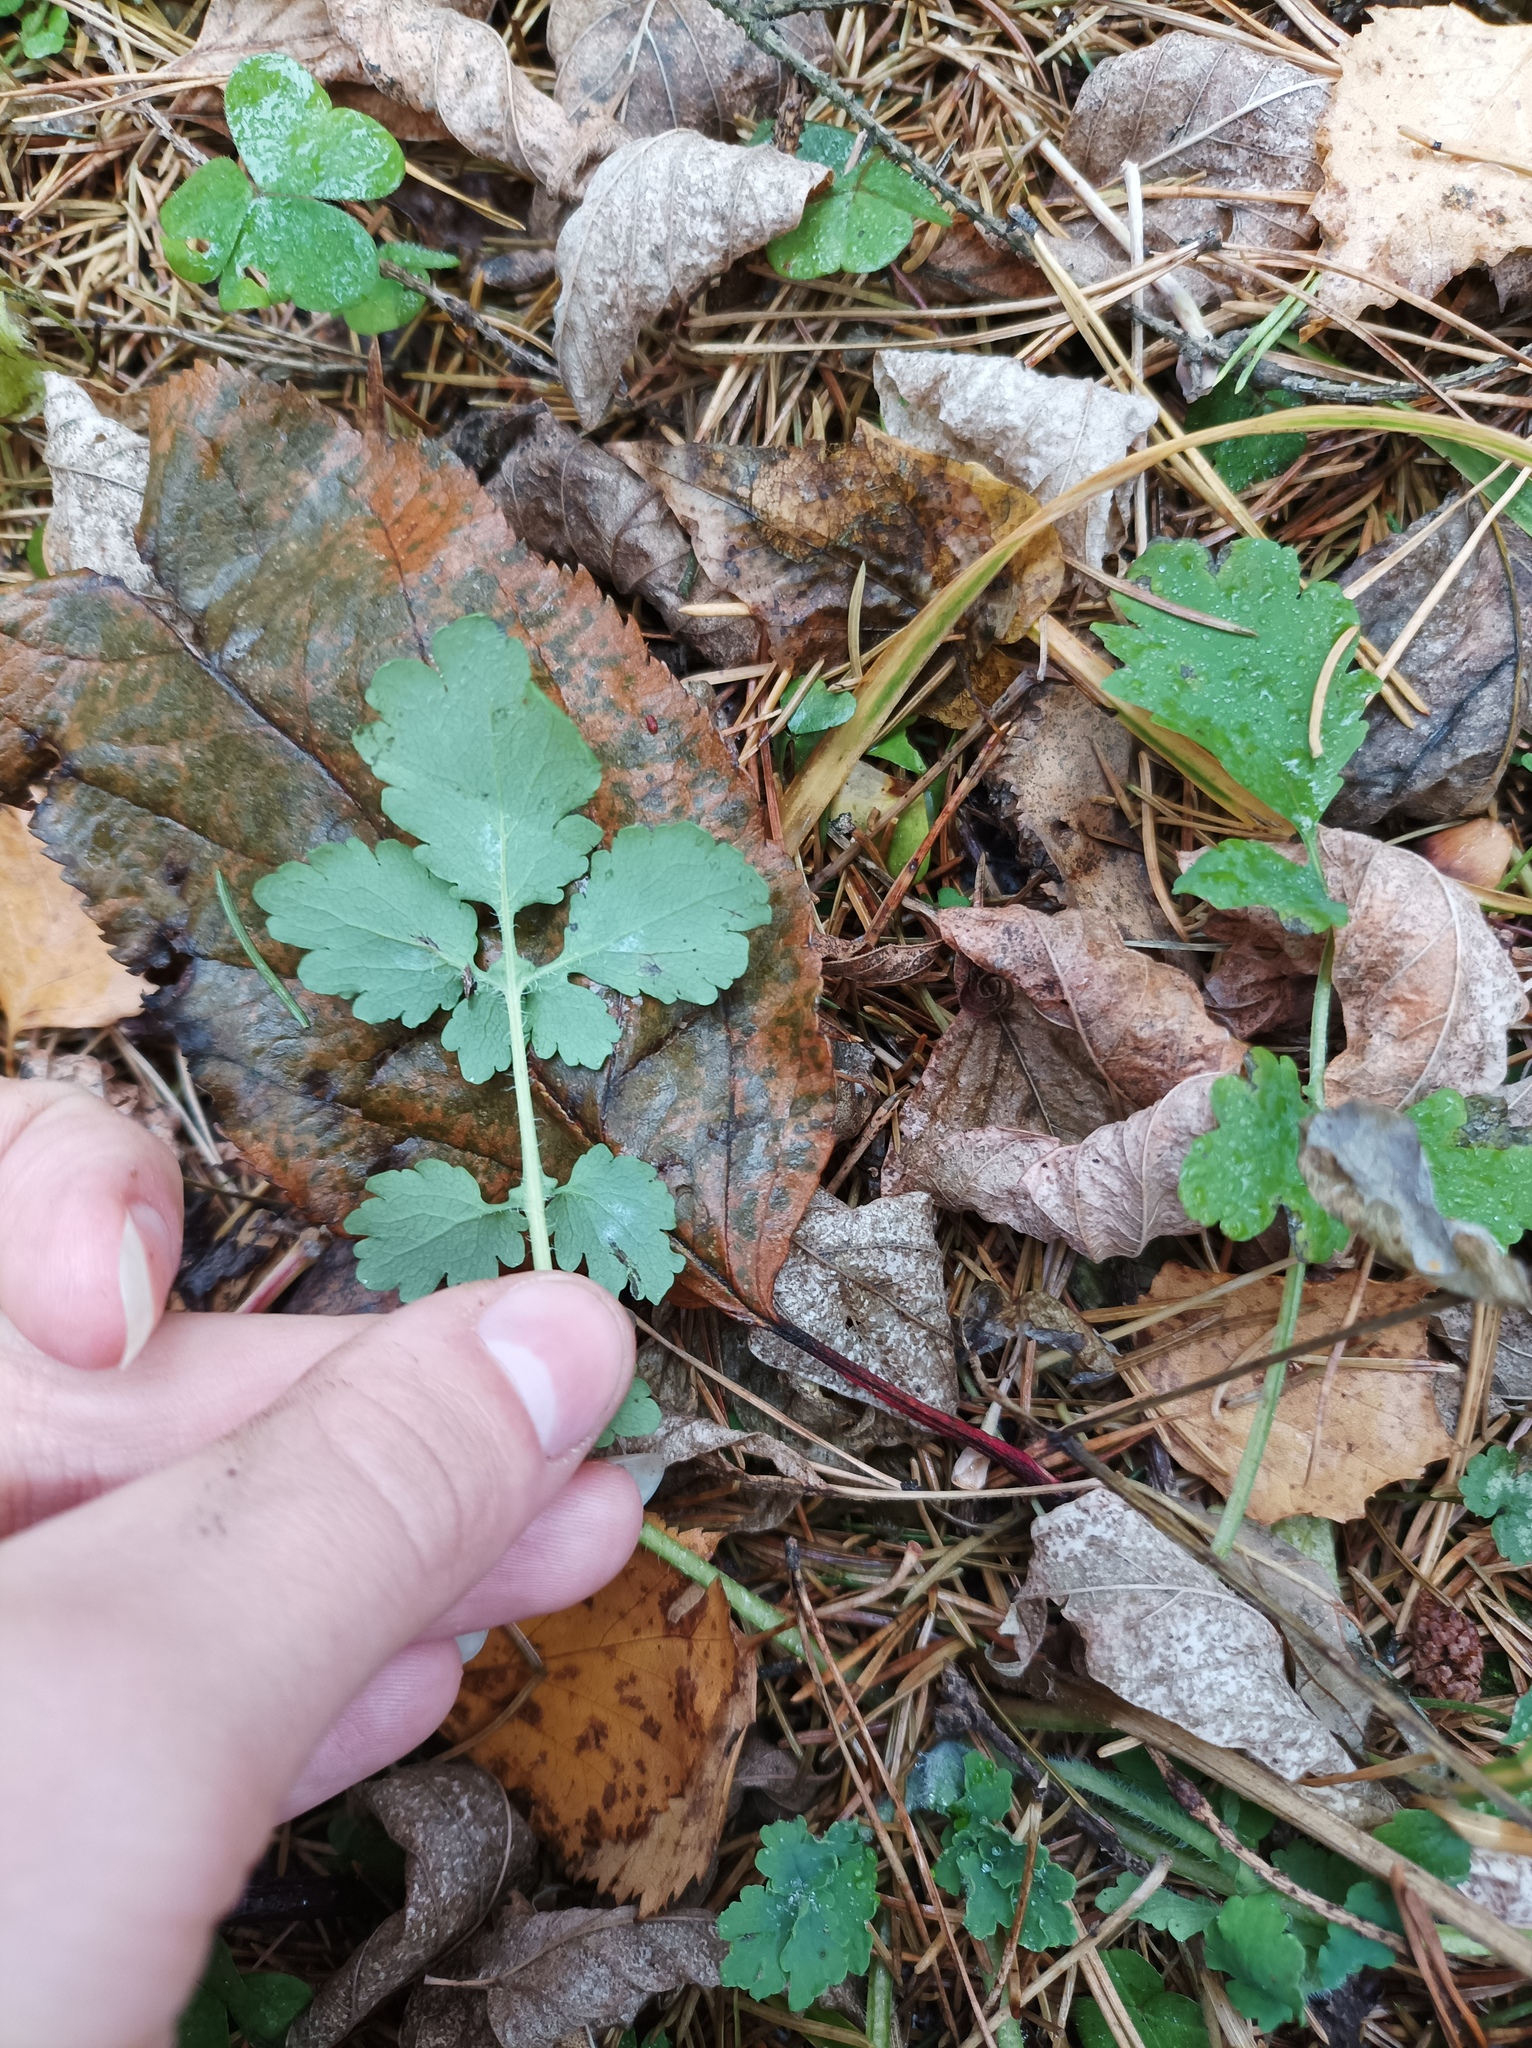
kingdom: Plantae
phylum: Tracheophyta
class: Magnoliopsida
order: Ranunculales
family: Papaveraceae
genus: Chelidonium
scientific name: Chelidonium majus
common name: Greater celandine
